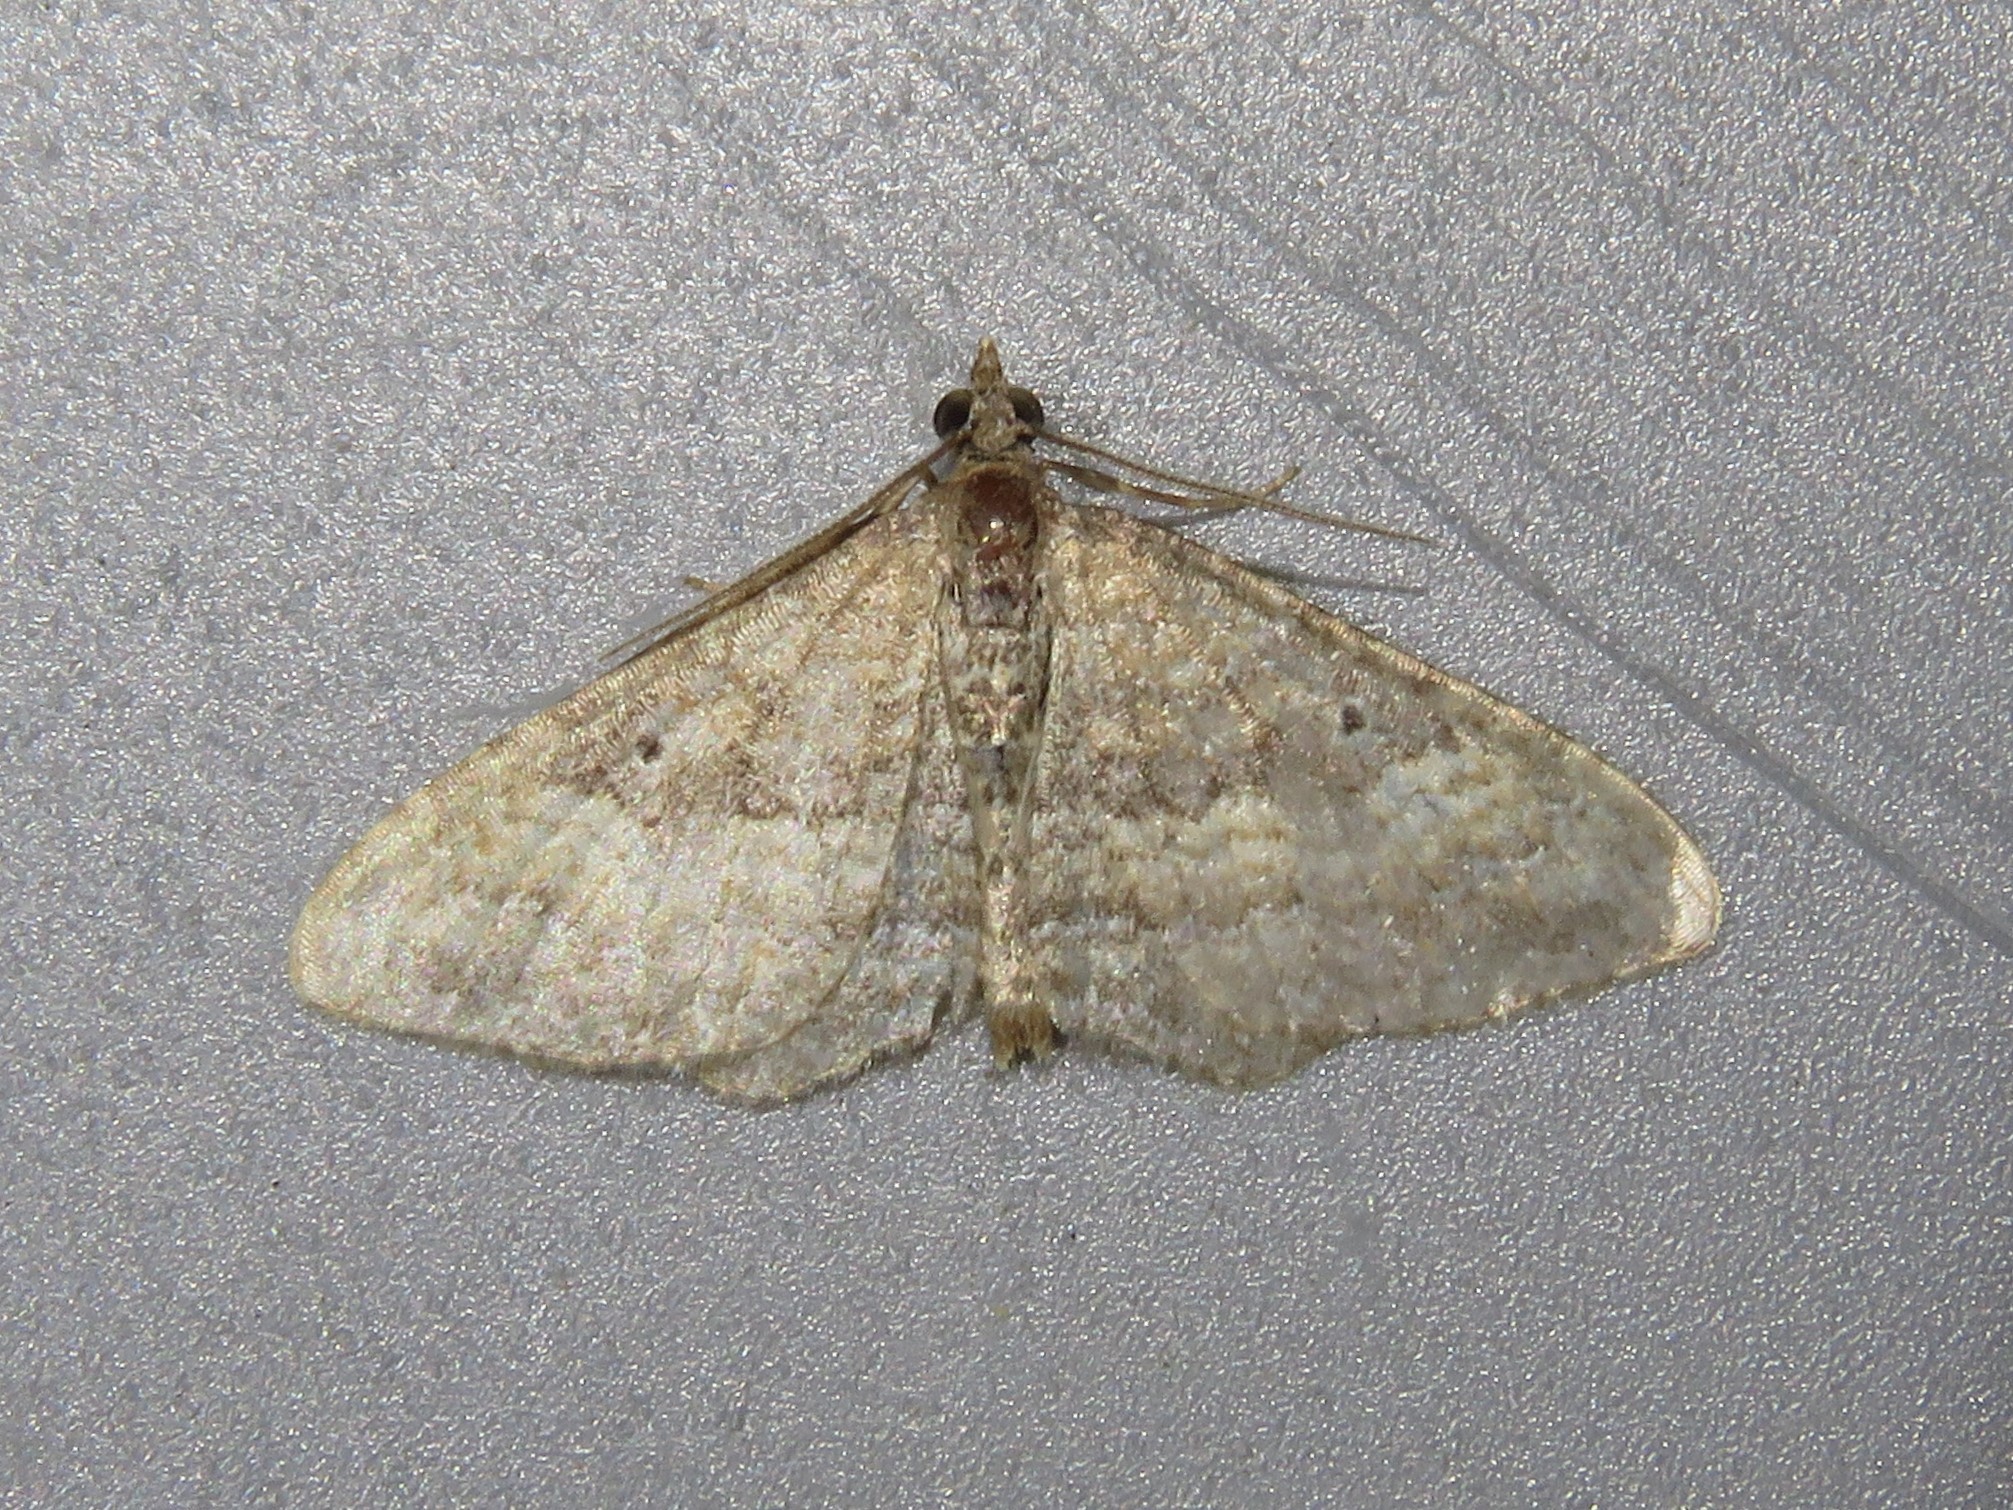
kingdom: Animalia
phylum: Arthropoda
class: Insecta
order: Lepidoptera
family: Geometridae
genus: Orthonama
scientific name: Orthonama obstipata
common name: The gem
